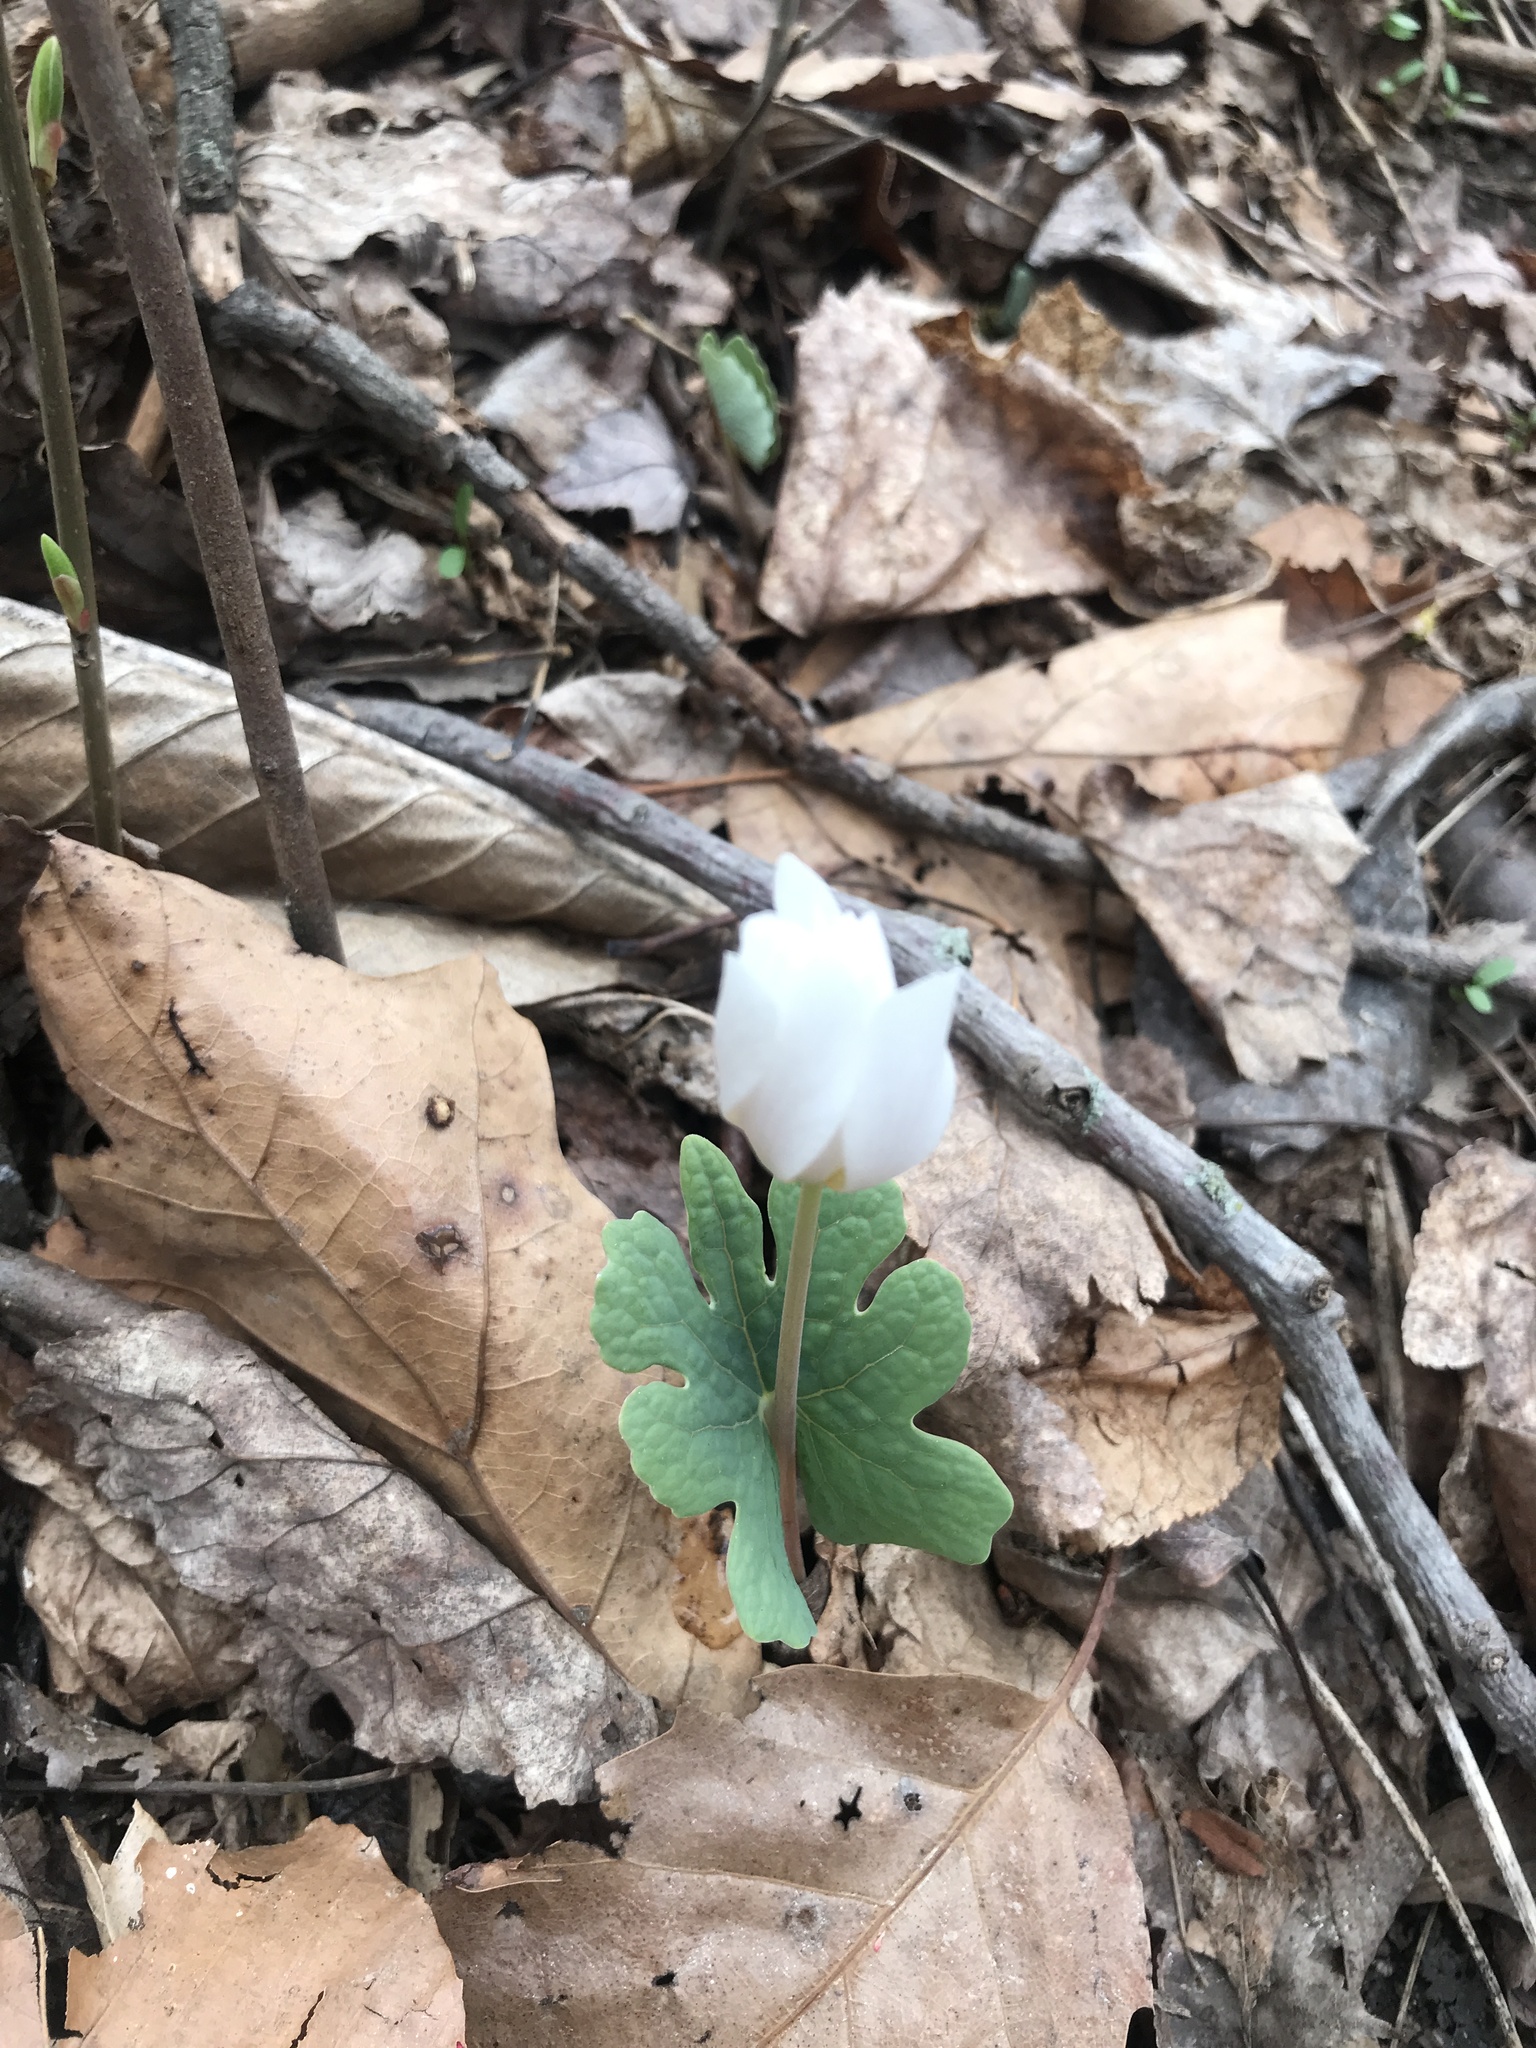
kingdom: Plantae
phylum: Tracheophyta
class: Magnoliopsida
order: Ranunculales
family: Papaveraceae
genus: Sanguinaria
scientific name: Sanguinaria canadensis
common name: Bloodroot
